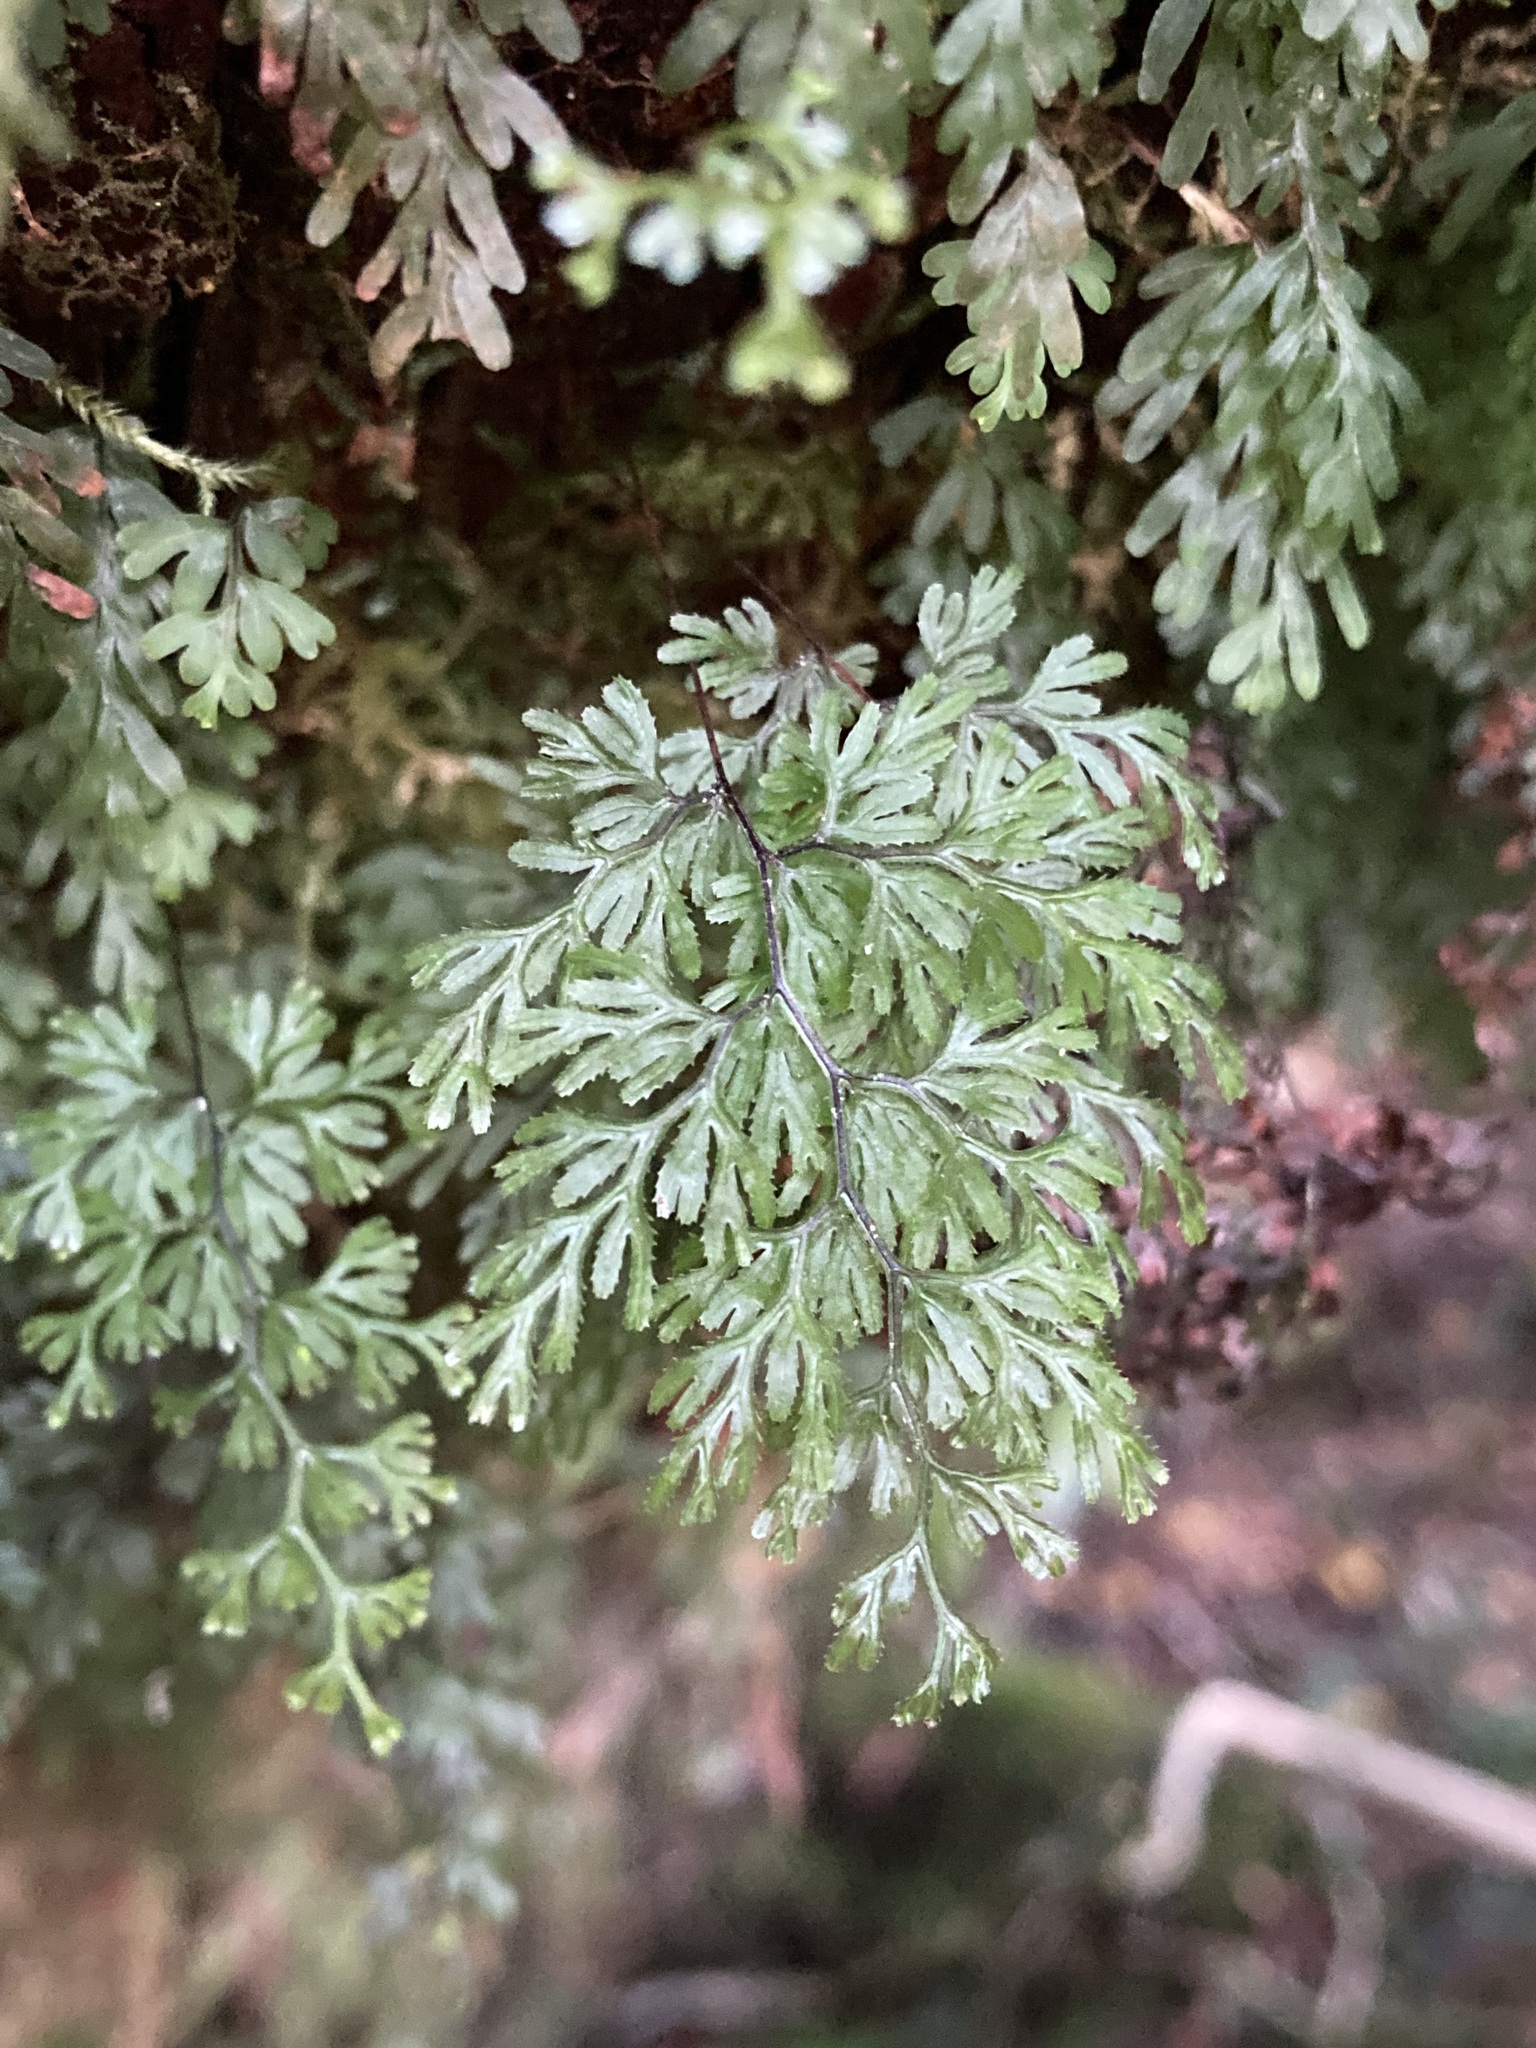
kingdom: Plantae
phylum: Tracheophyta
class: Polypodiopsida
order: Hymenophyllales
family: Hymenophyllaceae
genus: Hymenophyllum
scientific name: Hymenophyllum revolutum
